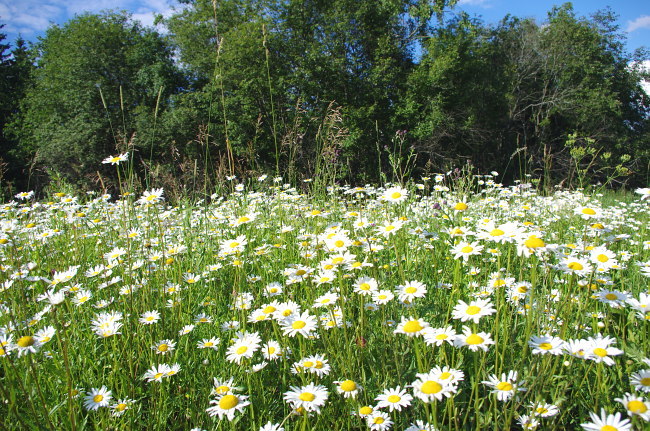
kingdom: Plantae
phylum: Tracheophyta
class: Magnoliopsida
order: Asterales
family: Asteraceae
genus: Leucanthemum
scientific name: Leucanthemum vulgare
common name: Oxeye daisy
